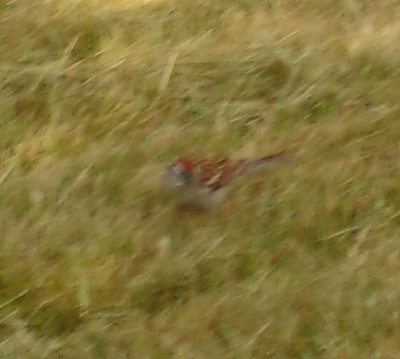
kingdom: Animalia
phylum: Chordata
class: Aves
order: Passeriformes
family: Passerellidae
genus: Spizella
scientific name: Spizella passerina
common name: Chipping sparrow
